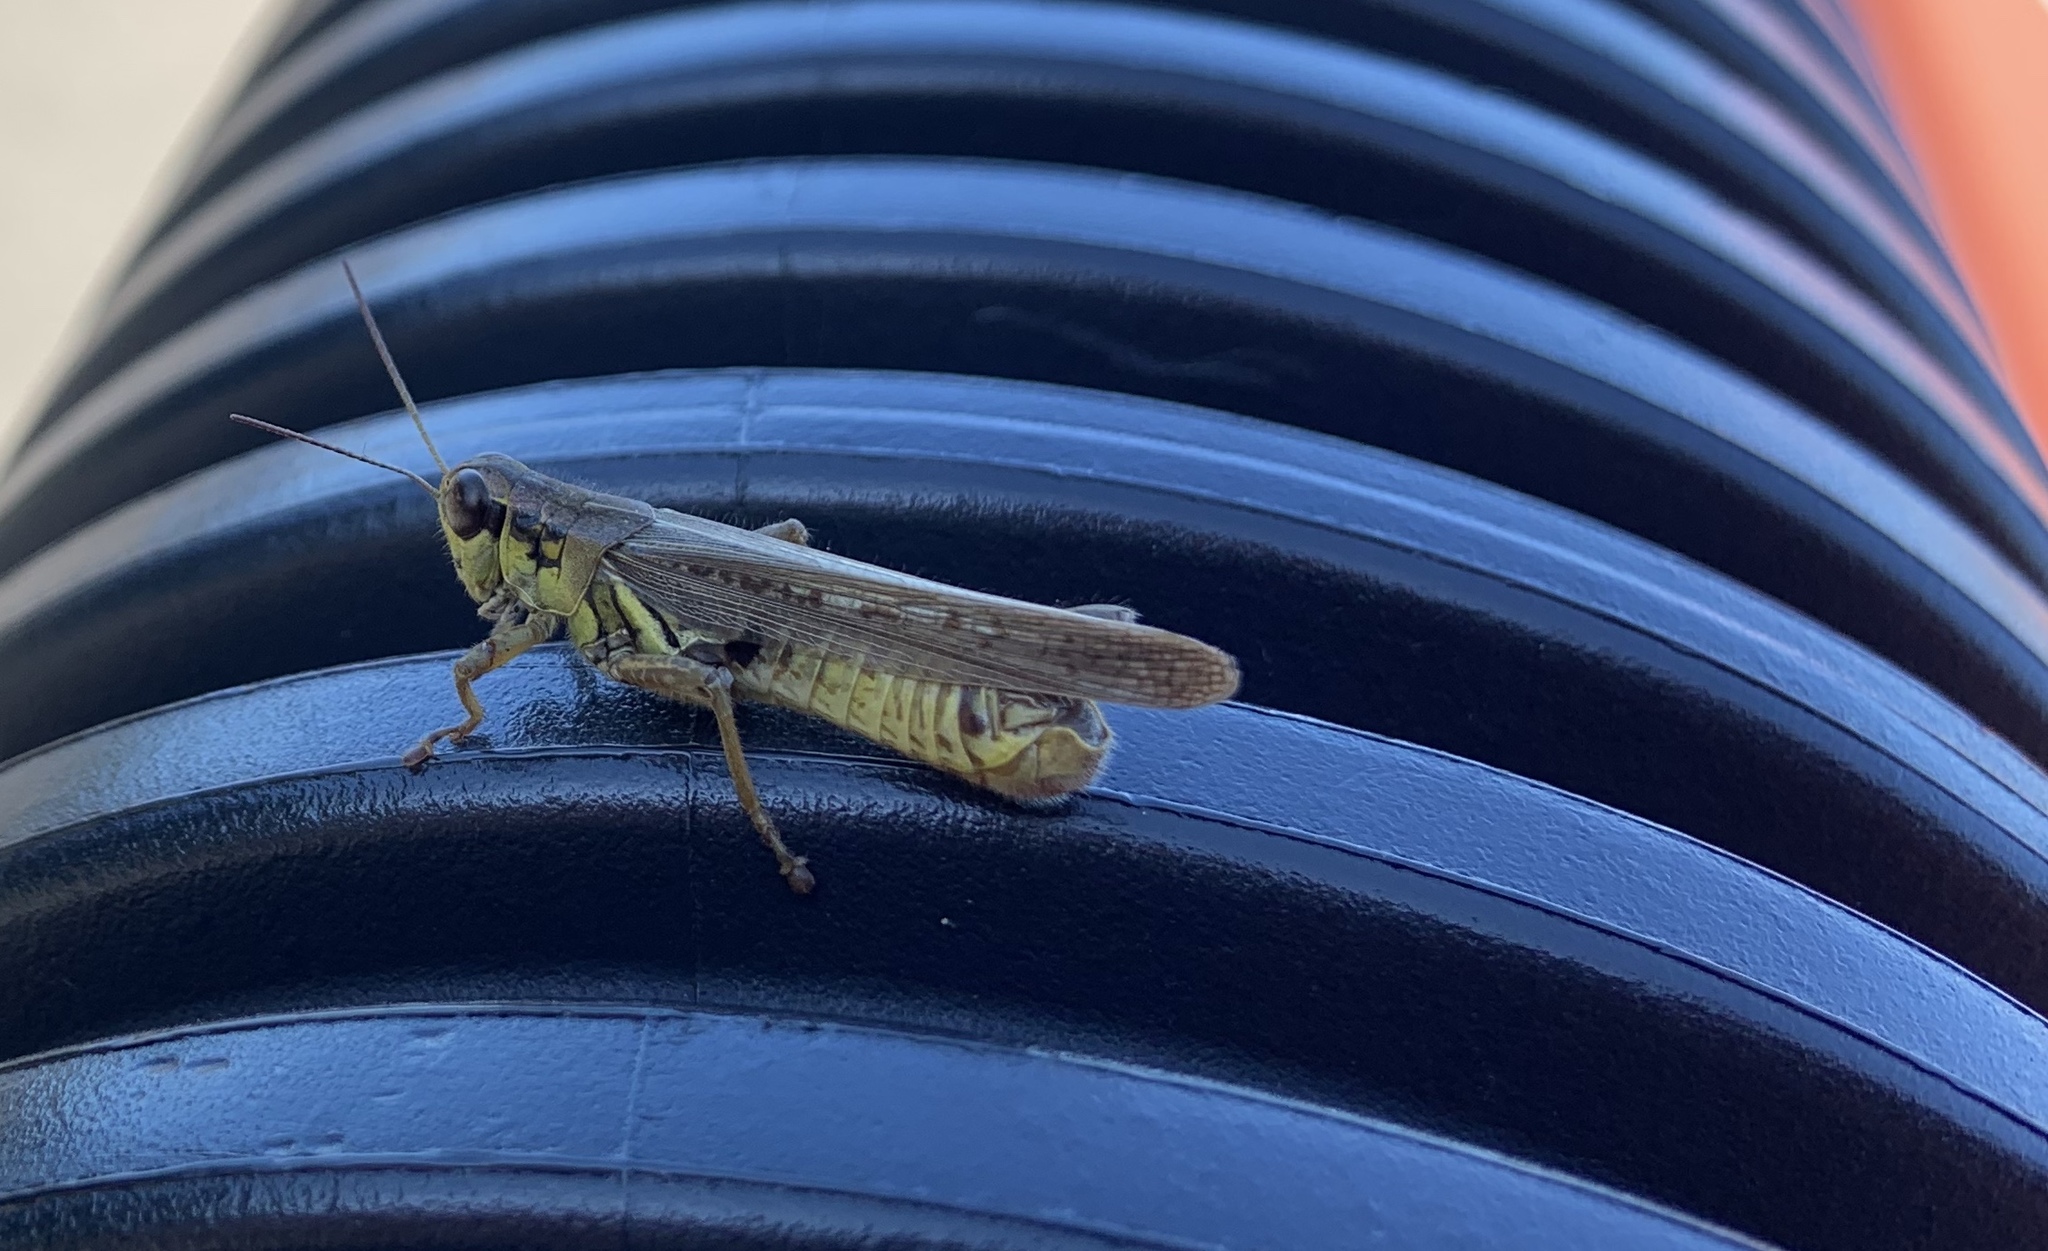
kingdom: Animalia
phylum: Arthropoda
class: Insecta
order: Orthoptera
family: Acrididae
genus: Melanoplus
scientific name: Melanoplus femurrubrum
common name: Red-legged grasshopper
